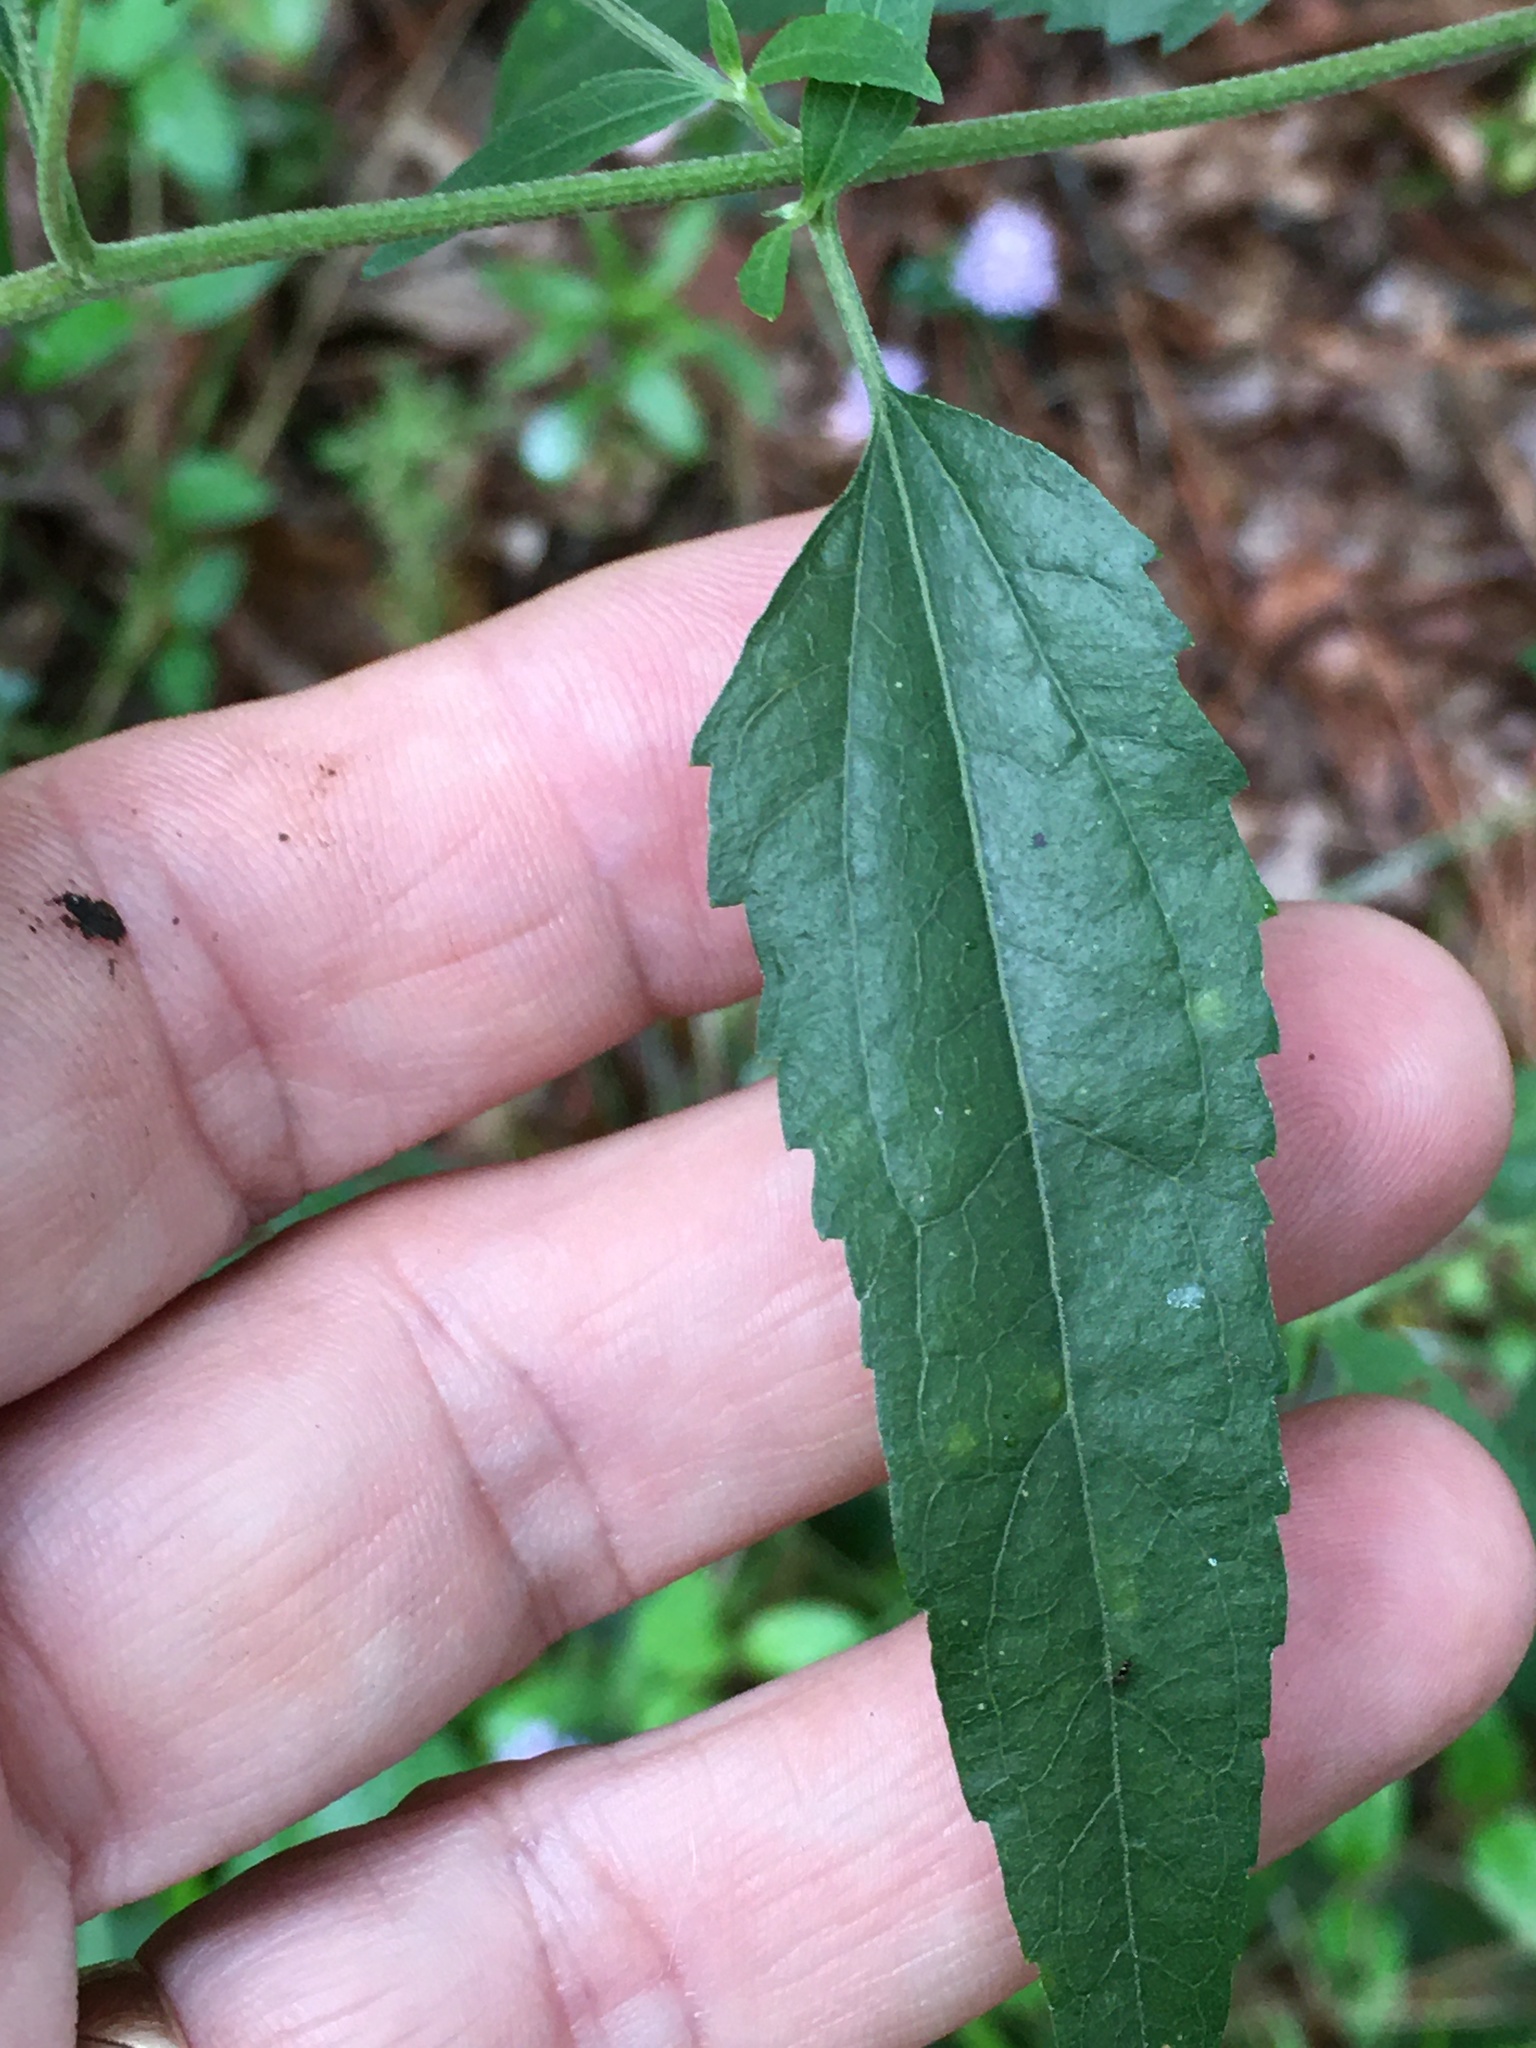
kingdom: Plantae
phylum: Tracheophyta
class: Magnoliopsida
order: Asterales
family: Asteraceae
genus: Eupatorium
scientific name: Eupatorium serotinum
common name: Late boneset
